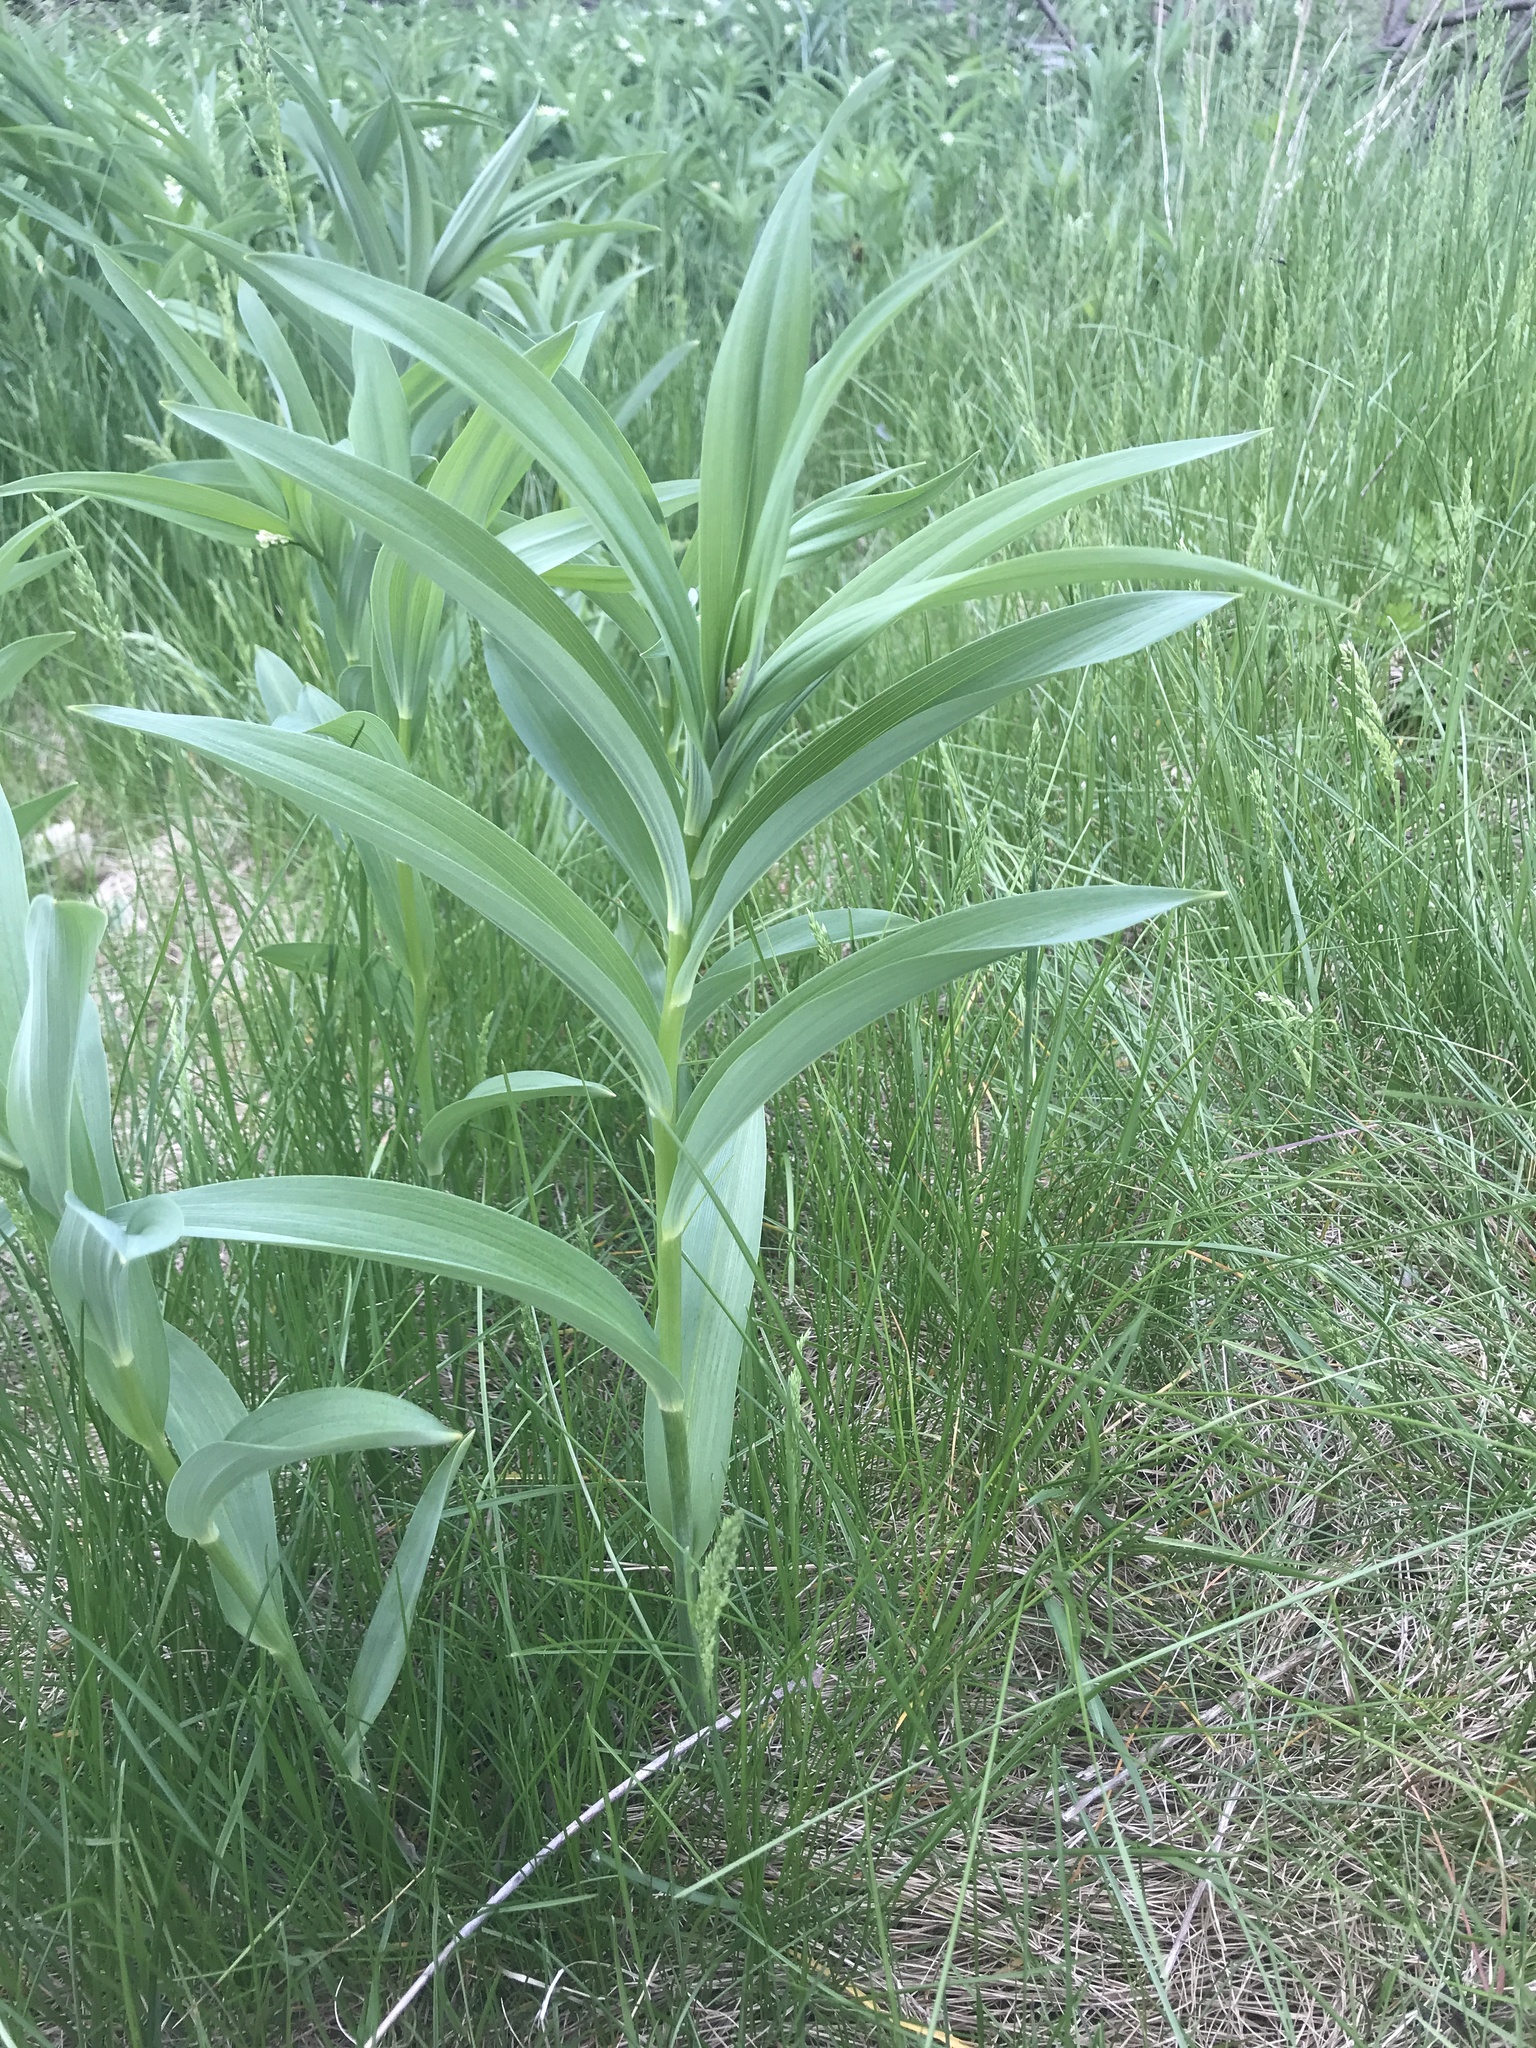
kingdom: Plantae
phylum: Tracheophyta
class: Liliopsida
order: Asparagales
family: Asparagaceae
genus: Maianthemum
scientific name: Maianthemum stellatum
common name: Little false solomon's seal
